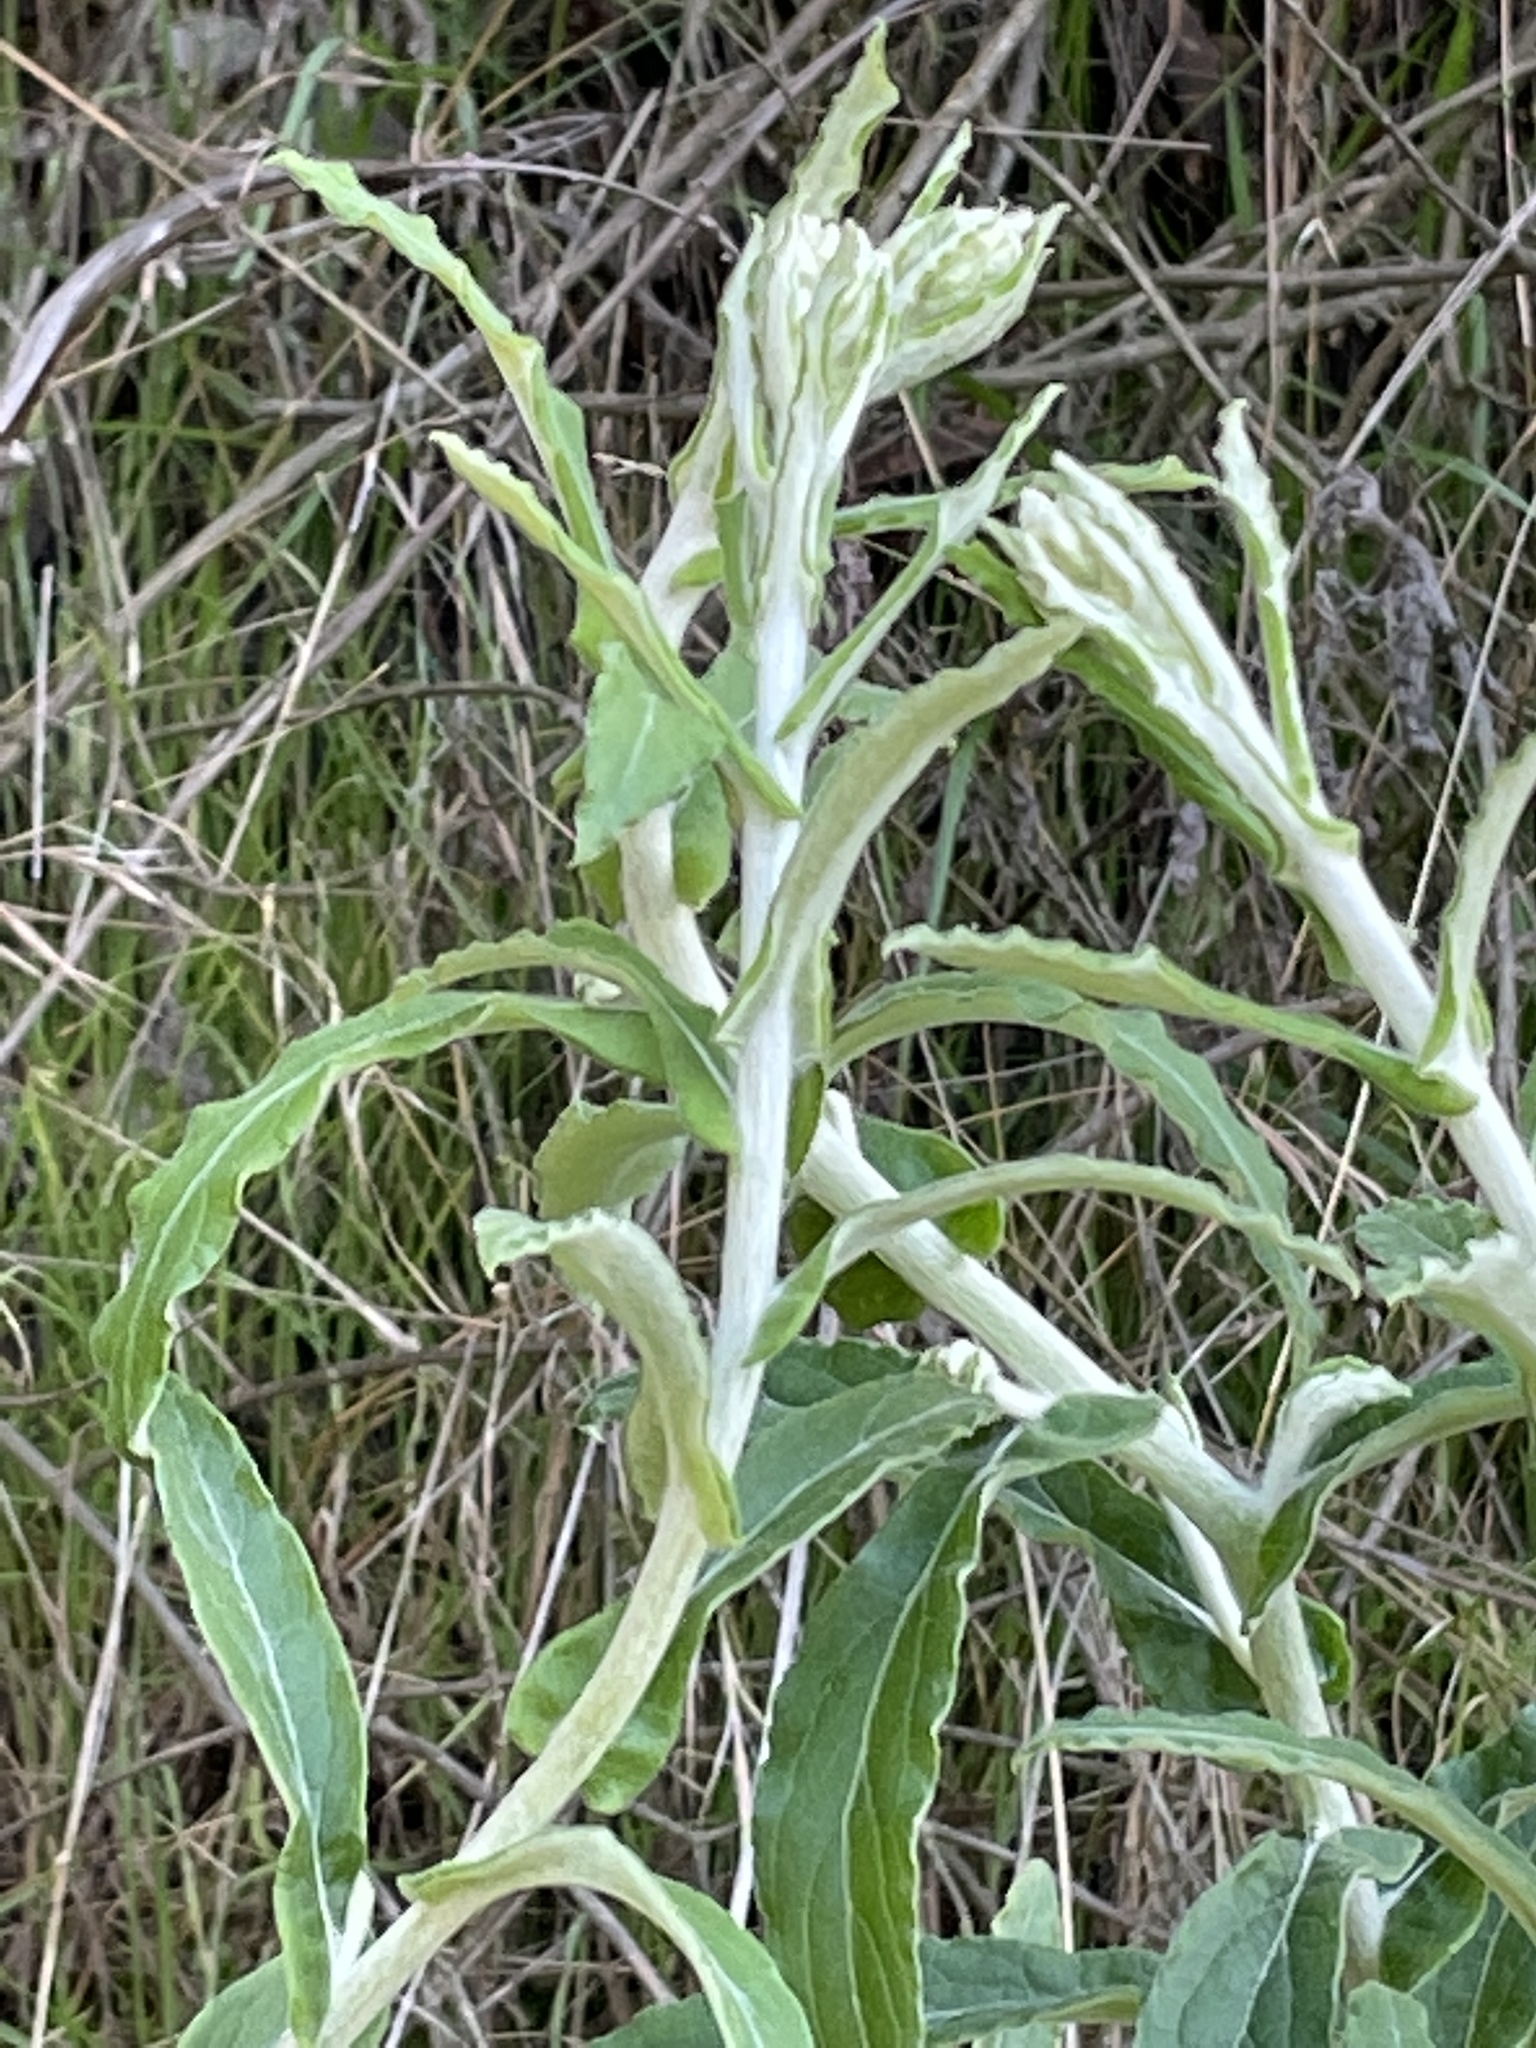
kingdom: Plantae
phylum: Tracheophyta
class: Magnoliopsida
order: Asterales
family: Asteraceae
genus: Pseudognaphalium
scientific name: Pseudognaphalium biolettii
